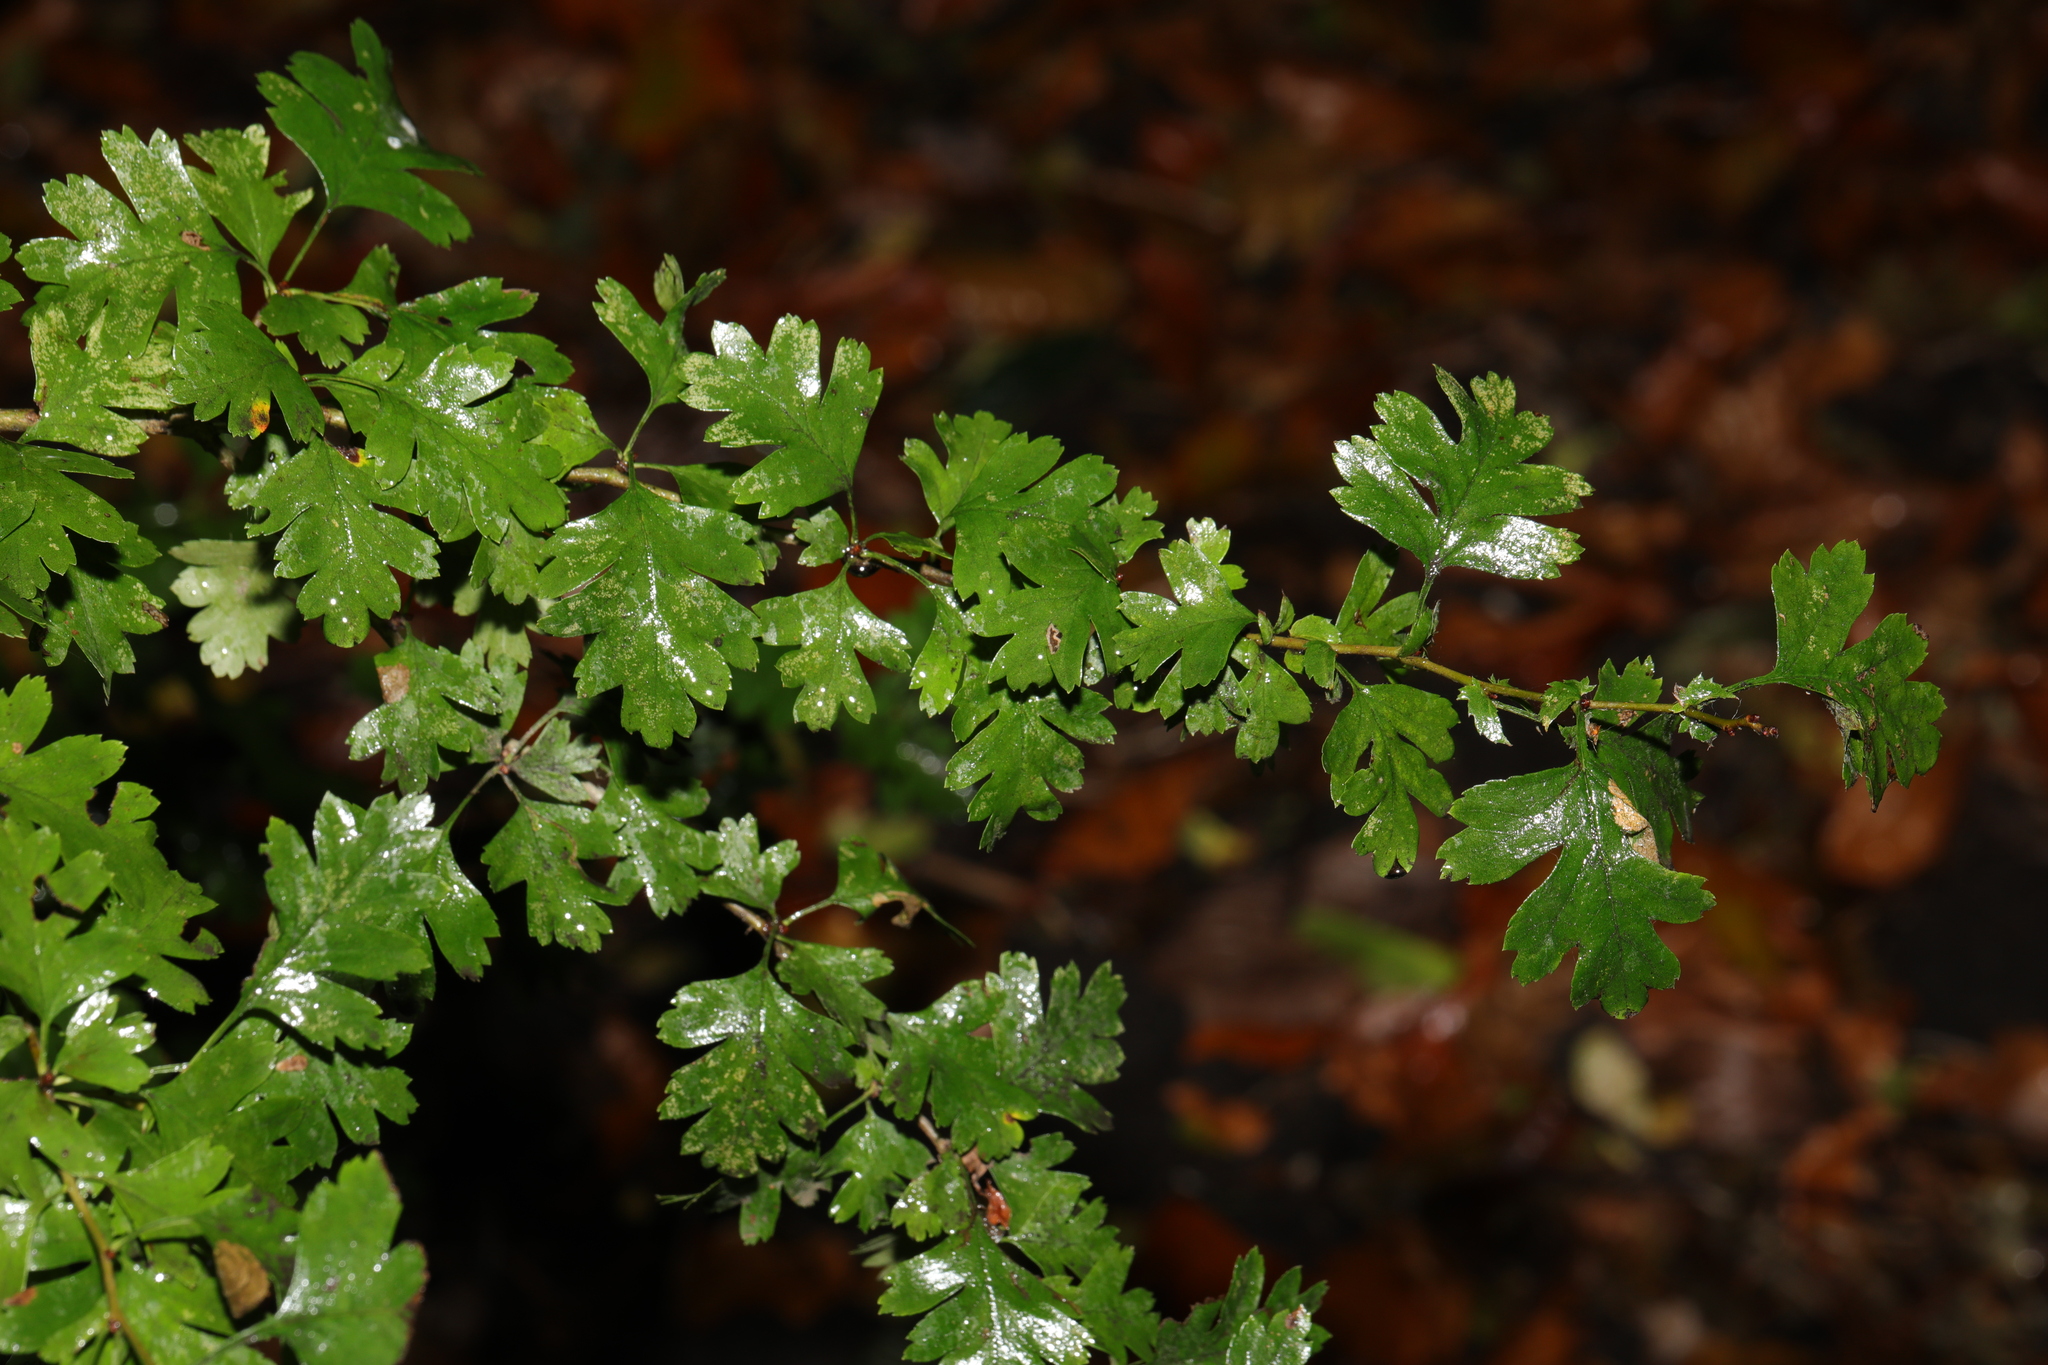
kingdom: Plantae
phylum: Tracheophyta
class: Magnoliopsida
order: Rosales
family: Rosaceae
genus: Crataegus
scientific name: Crataegus monogyna
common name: Hawthorn
